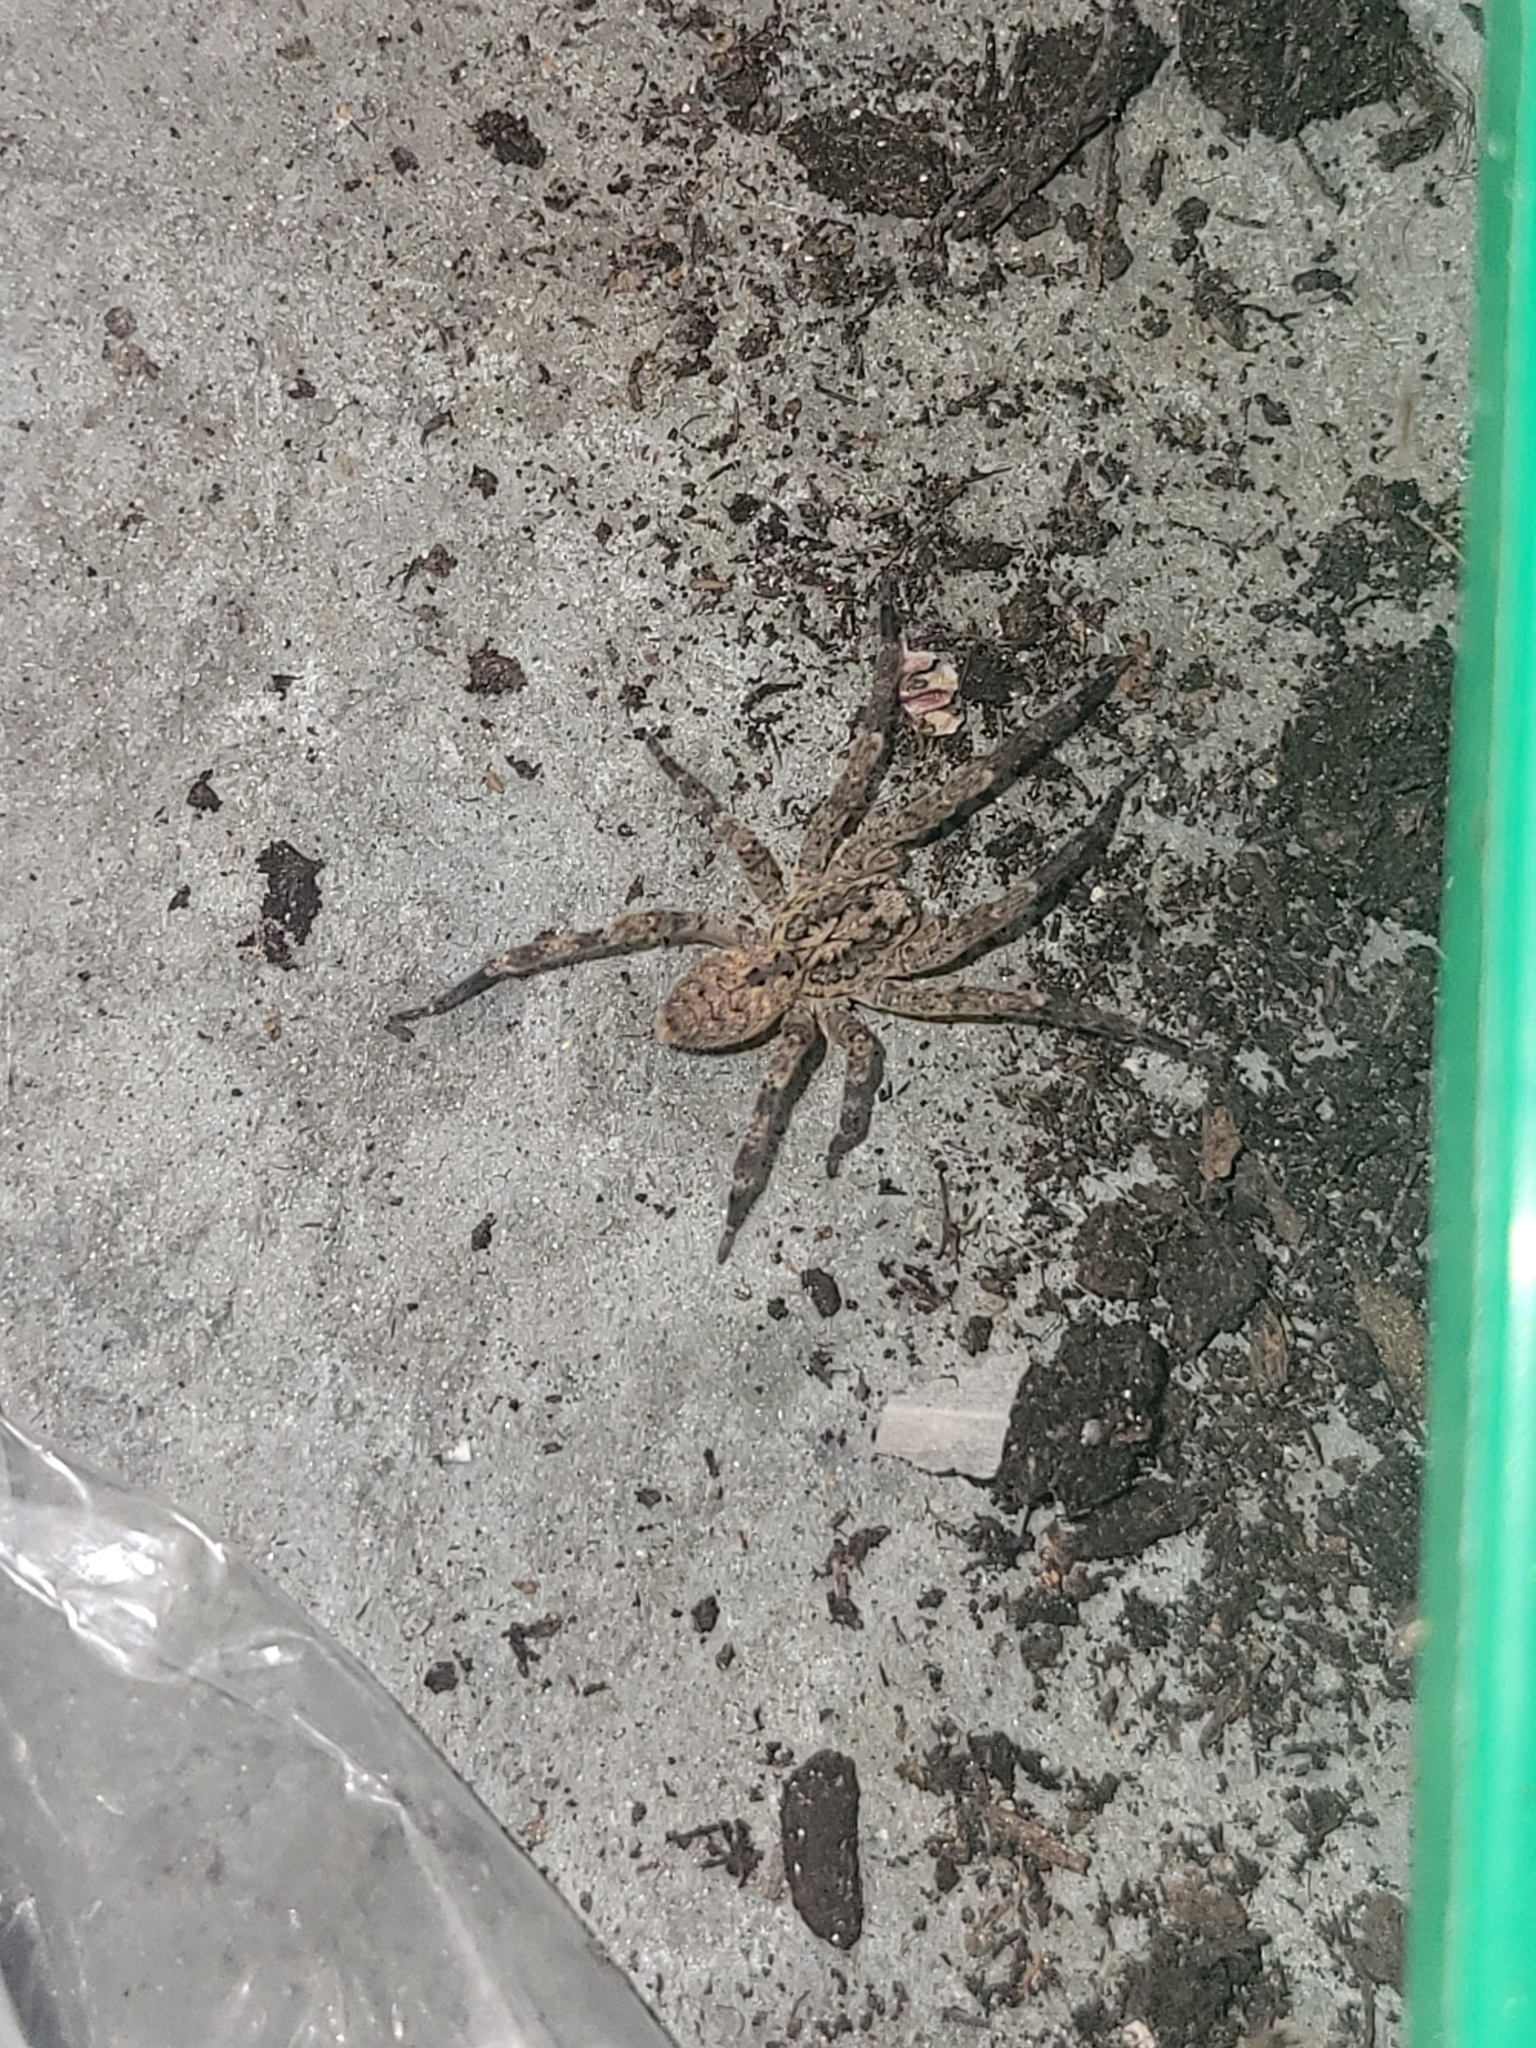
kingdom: Animalia
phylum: Arthropoda
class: Arachnida
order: Araneae
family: Zoropsidae
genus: Zoropsis
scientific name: Zoropsis spinimana
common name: Zoropsid spider
